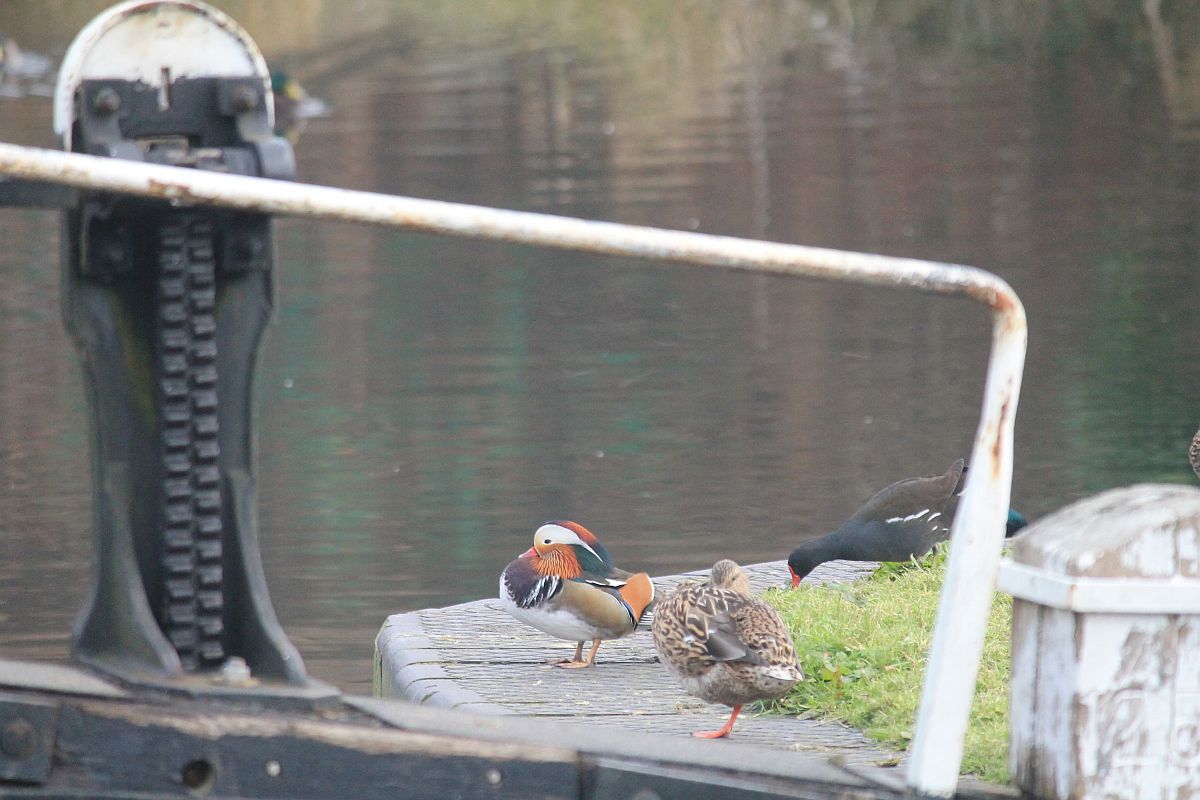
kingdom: Animalia
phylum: Chordata
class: Aves
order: Anseriformes
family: Anatidae
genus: Aix
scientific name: Aix galericulata
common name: Mandarin duck
